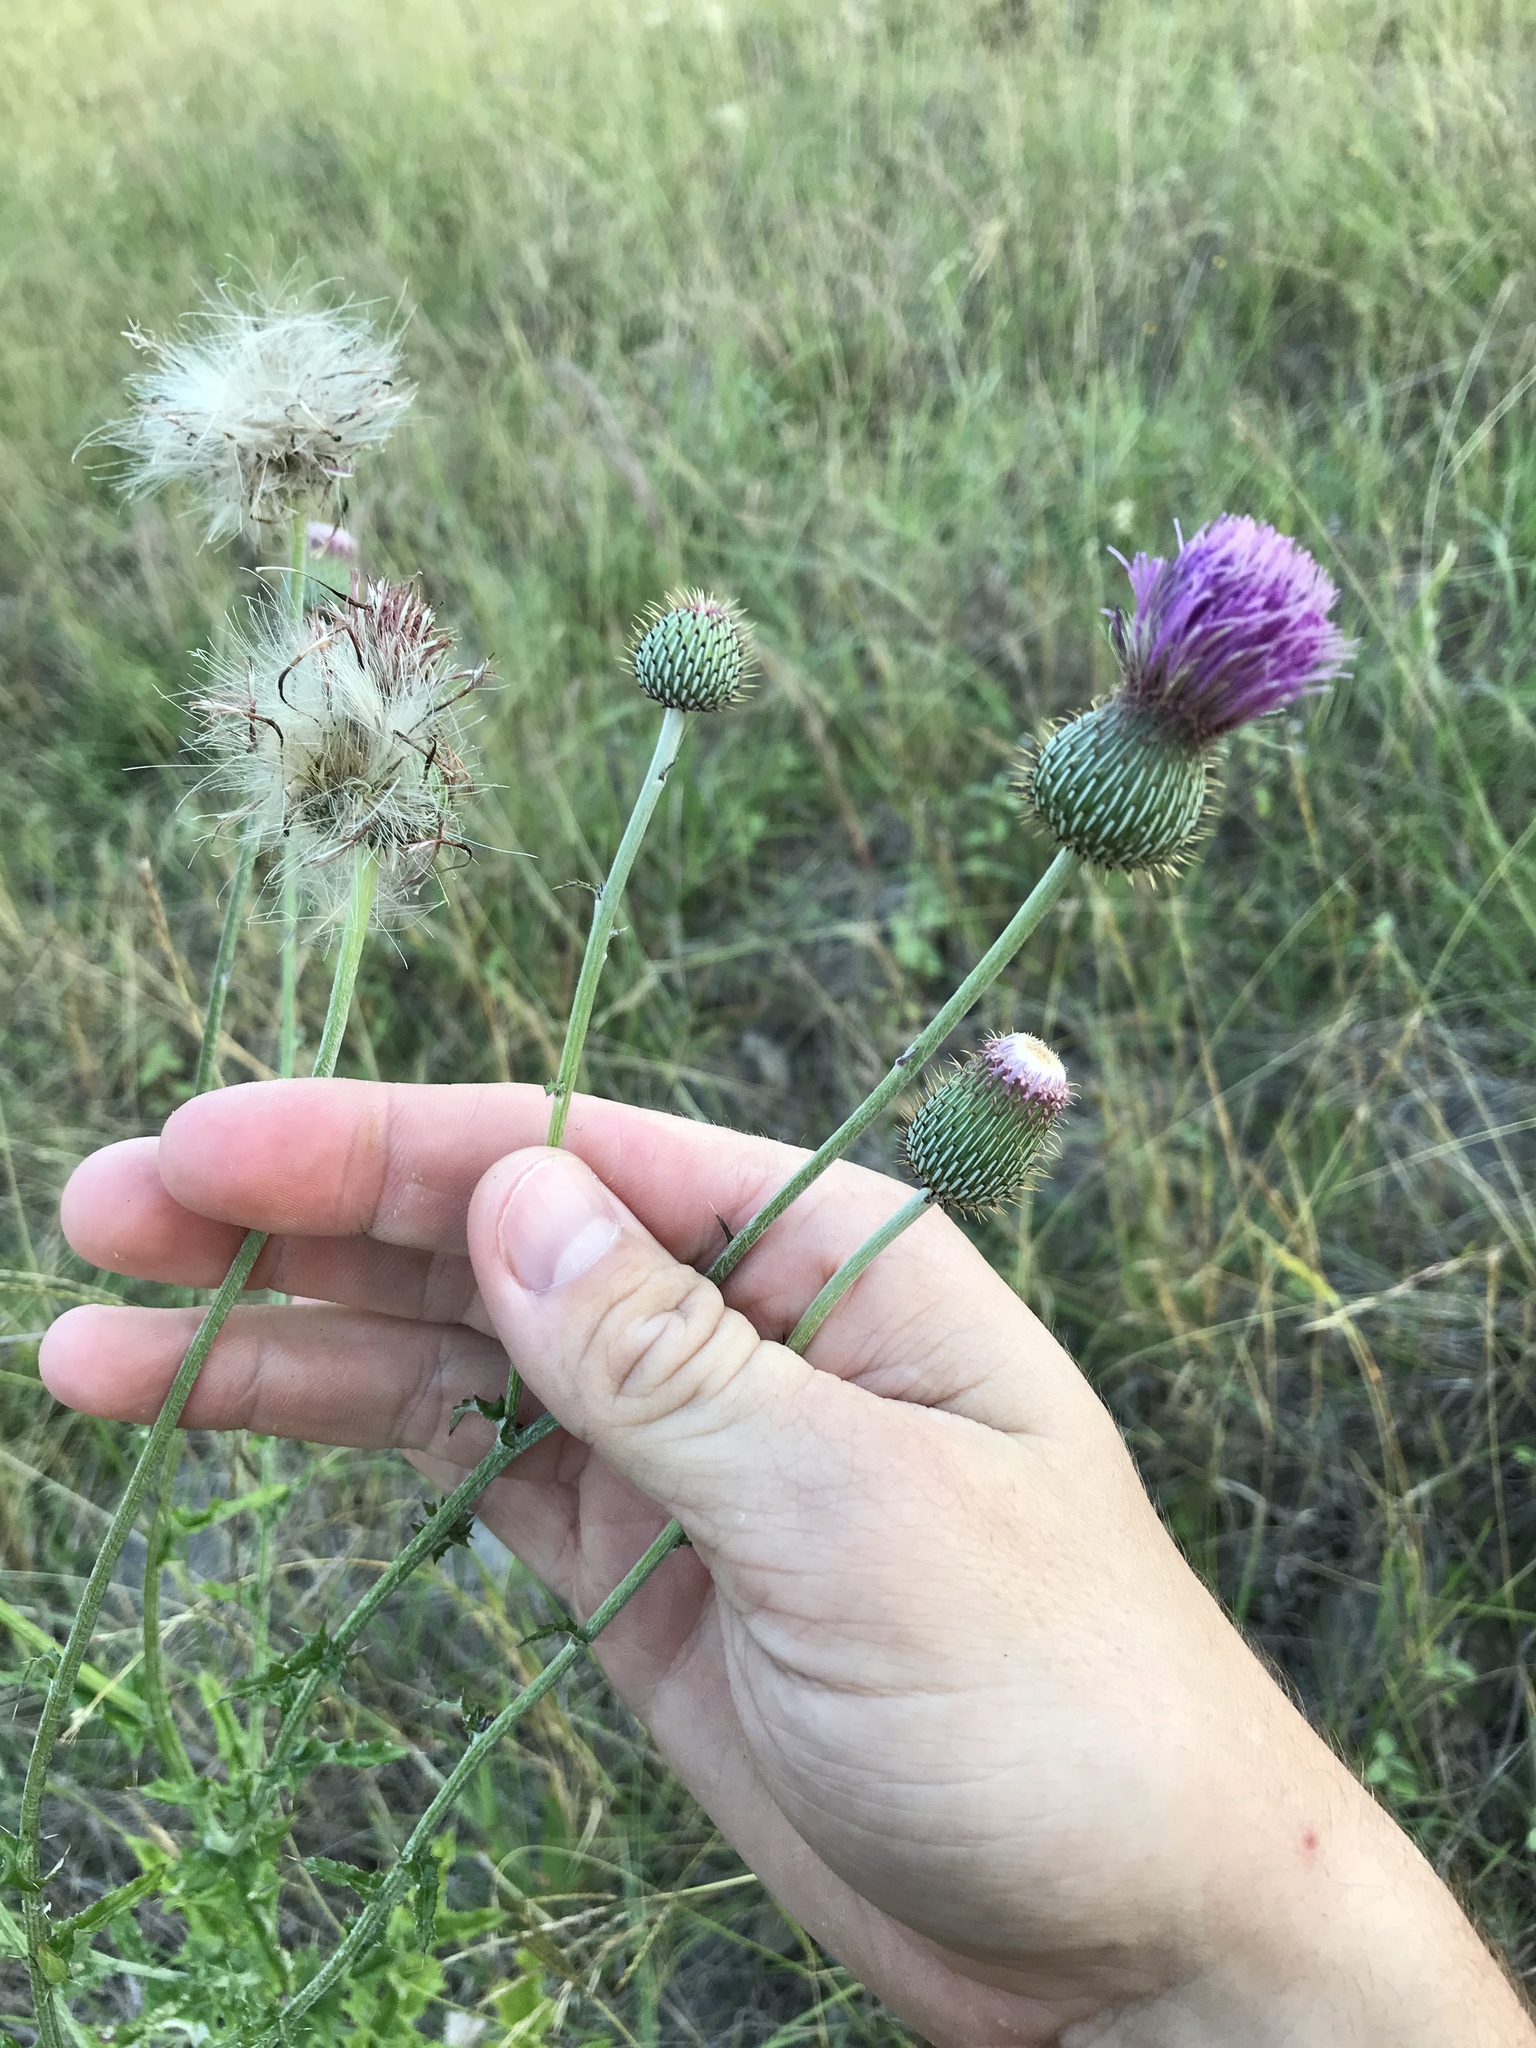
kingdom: Plantae
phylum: Tracheophyta
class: Magnoliopsida
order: Asterales
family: Asteraceae
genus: Cirsium
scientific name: Cirsium texanum
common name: Texas purple thistle
